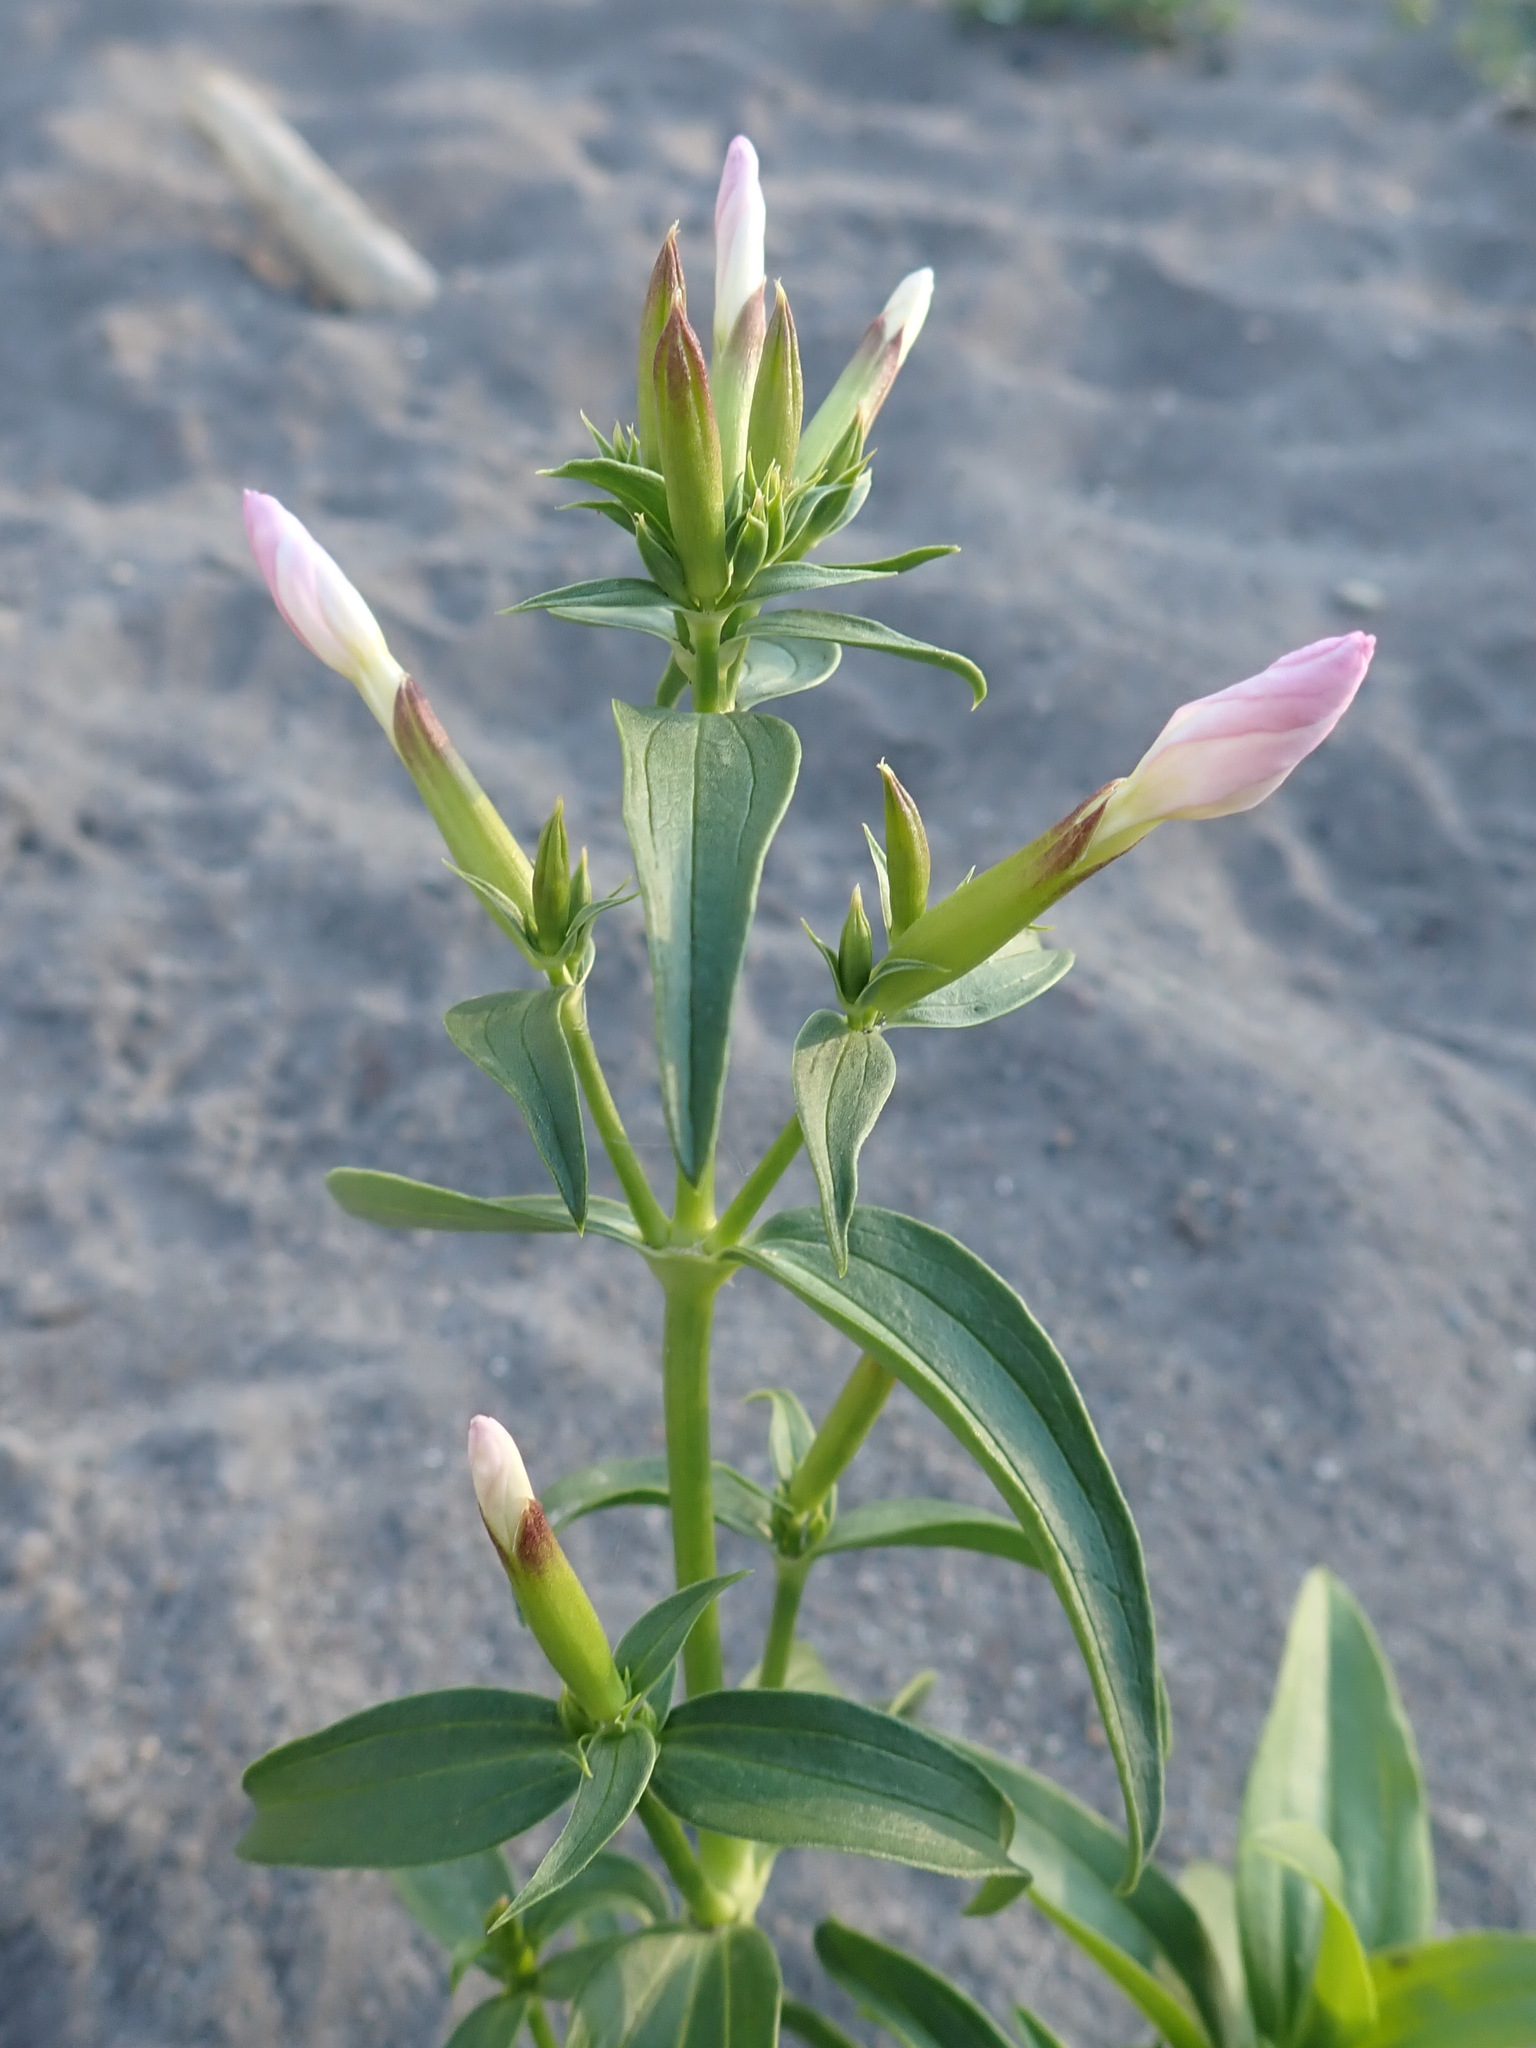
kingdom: Plantae
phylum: Tracheophyta
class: Magnoliopsida
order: Caryophyllales
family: Caryophyllaceae
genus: Saponaria
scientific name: Saponaria officinalis
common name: Soapwort
